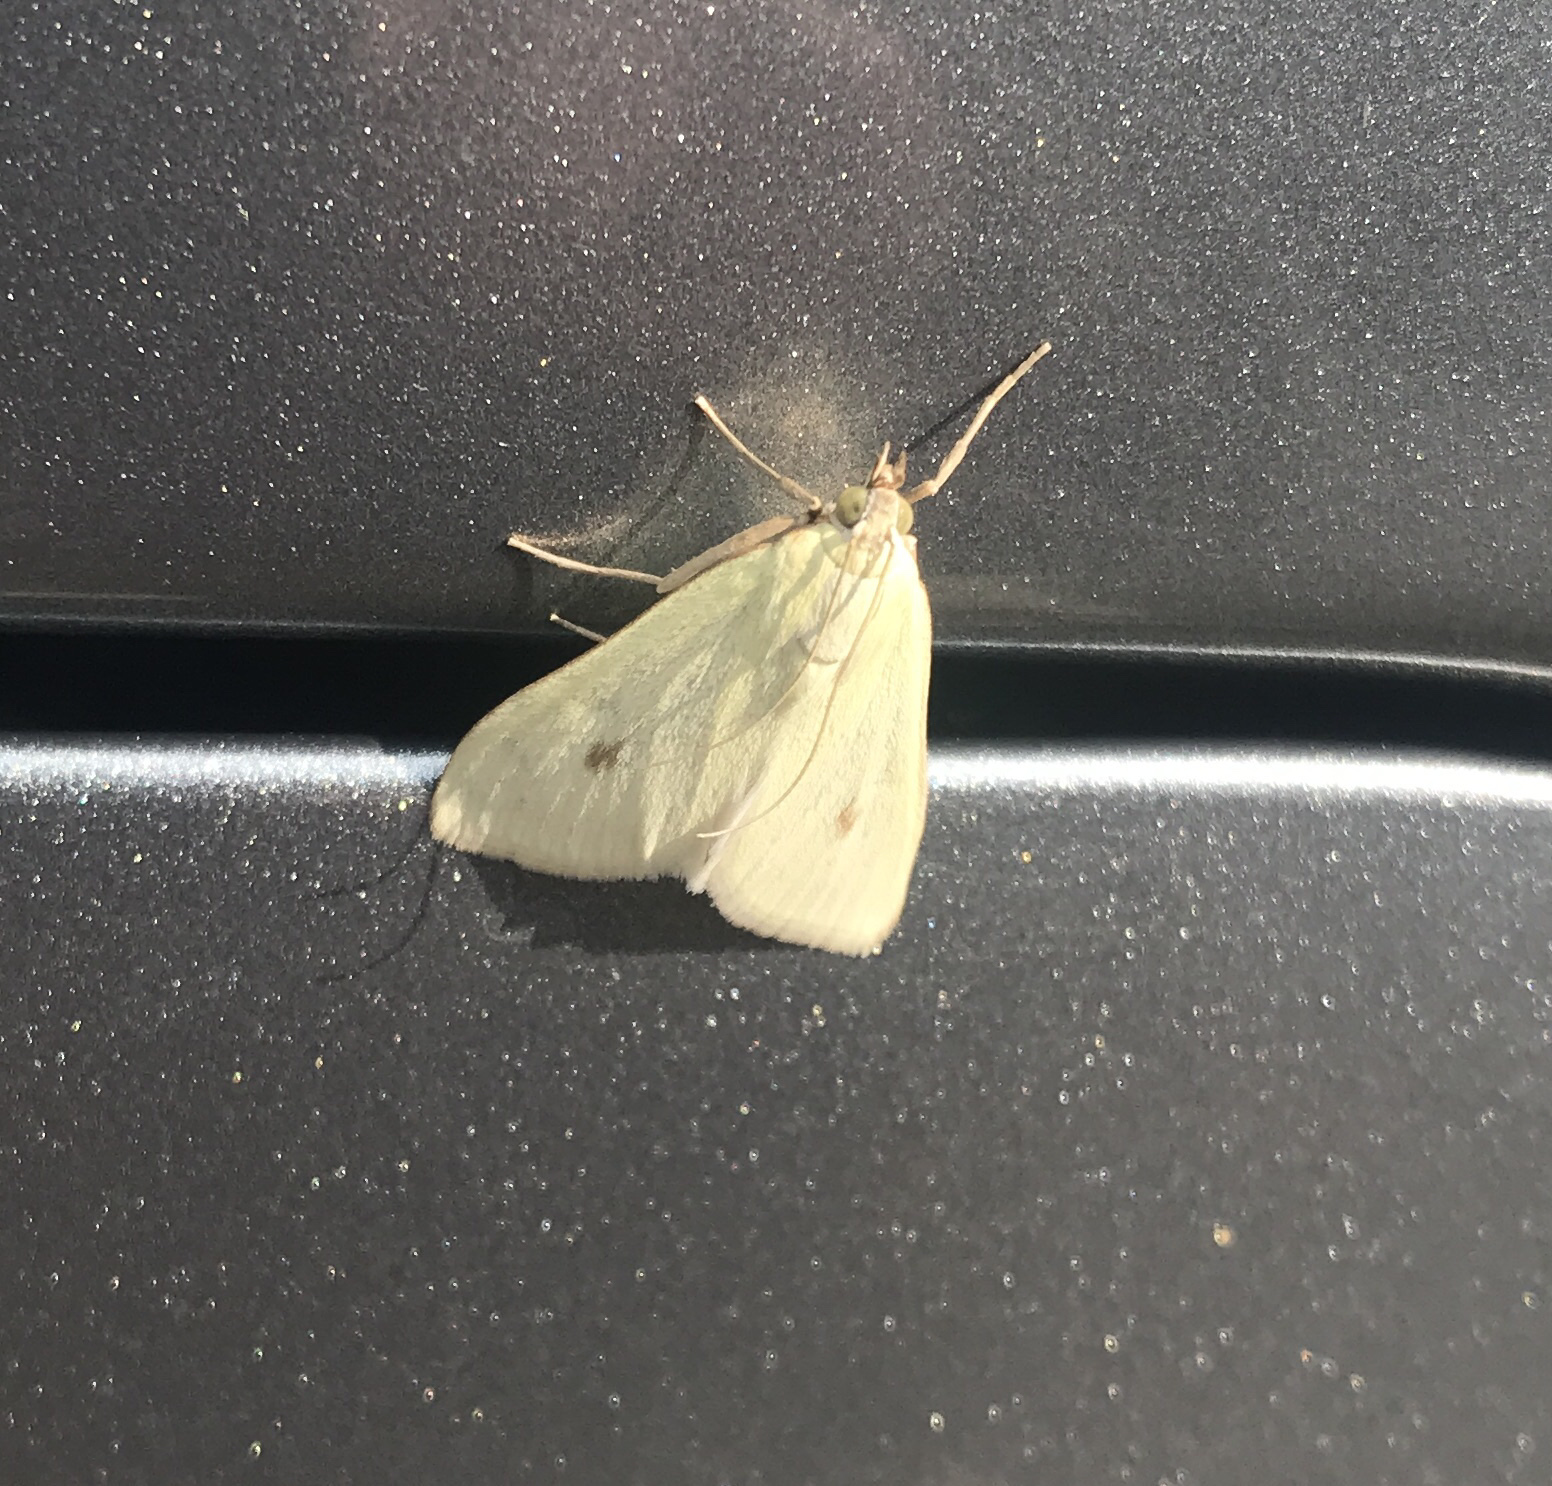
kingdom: Animalia
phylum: Arthropoda
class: Insecta
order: Lepidoptera
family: Crambidae
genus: Sitochroa
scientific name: Sitochroa palealis
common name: Greenish-yellow sitochroa moth
